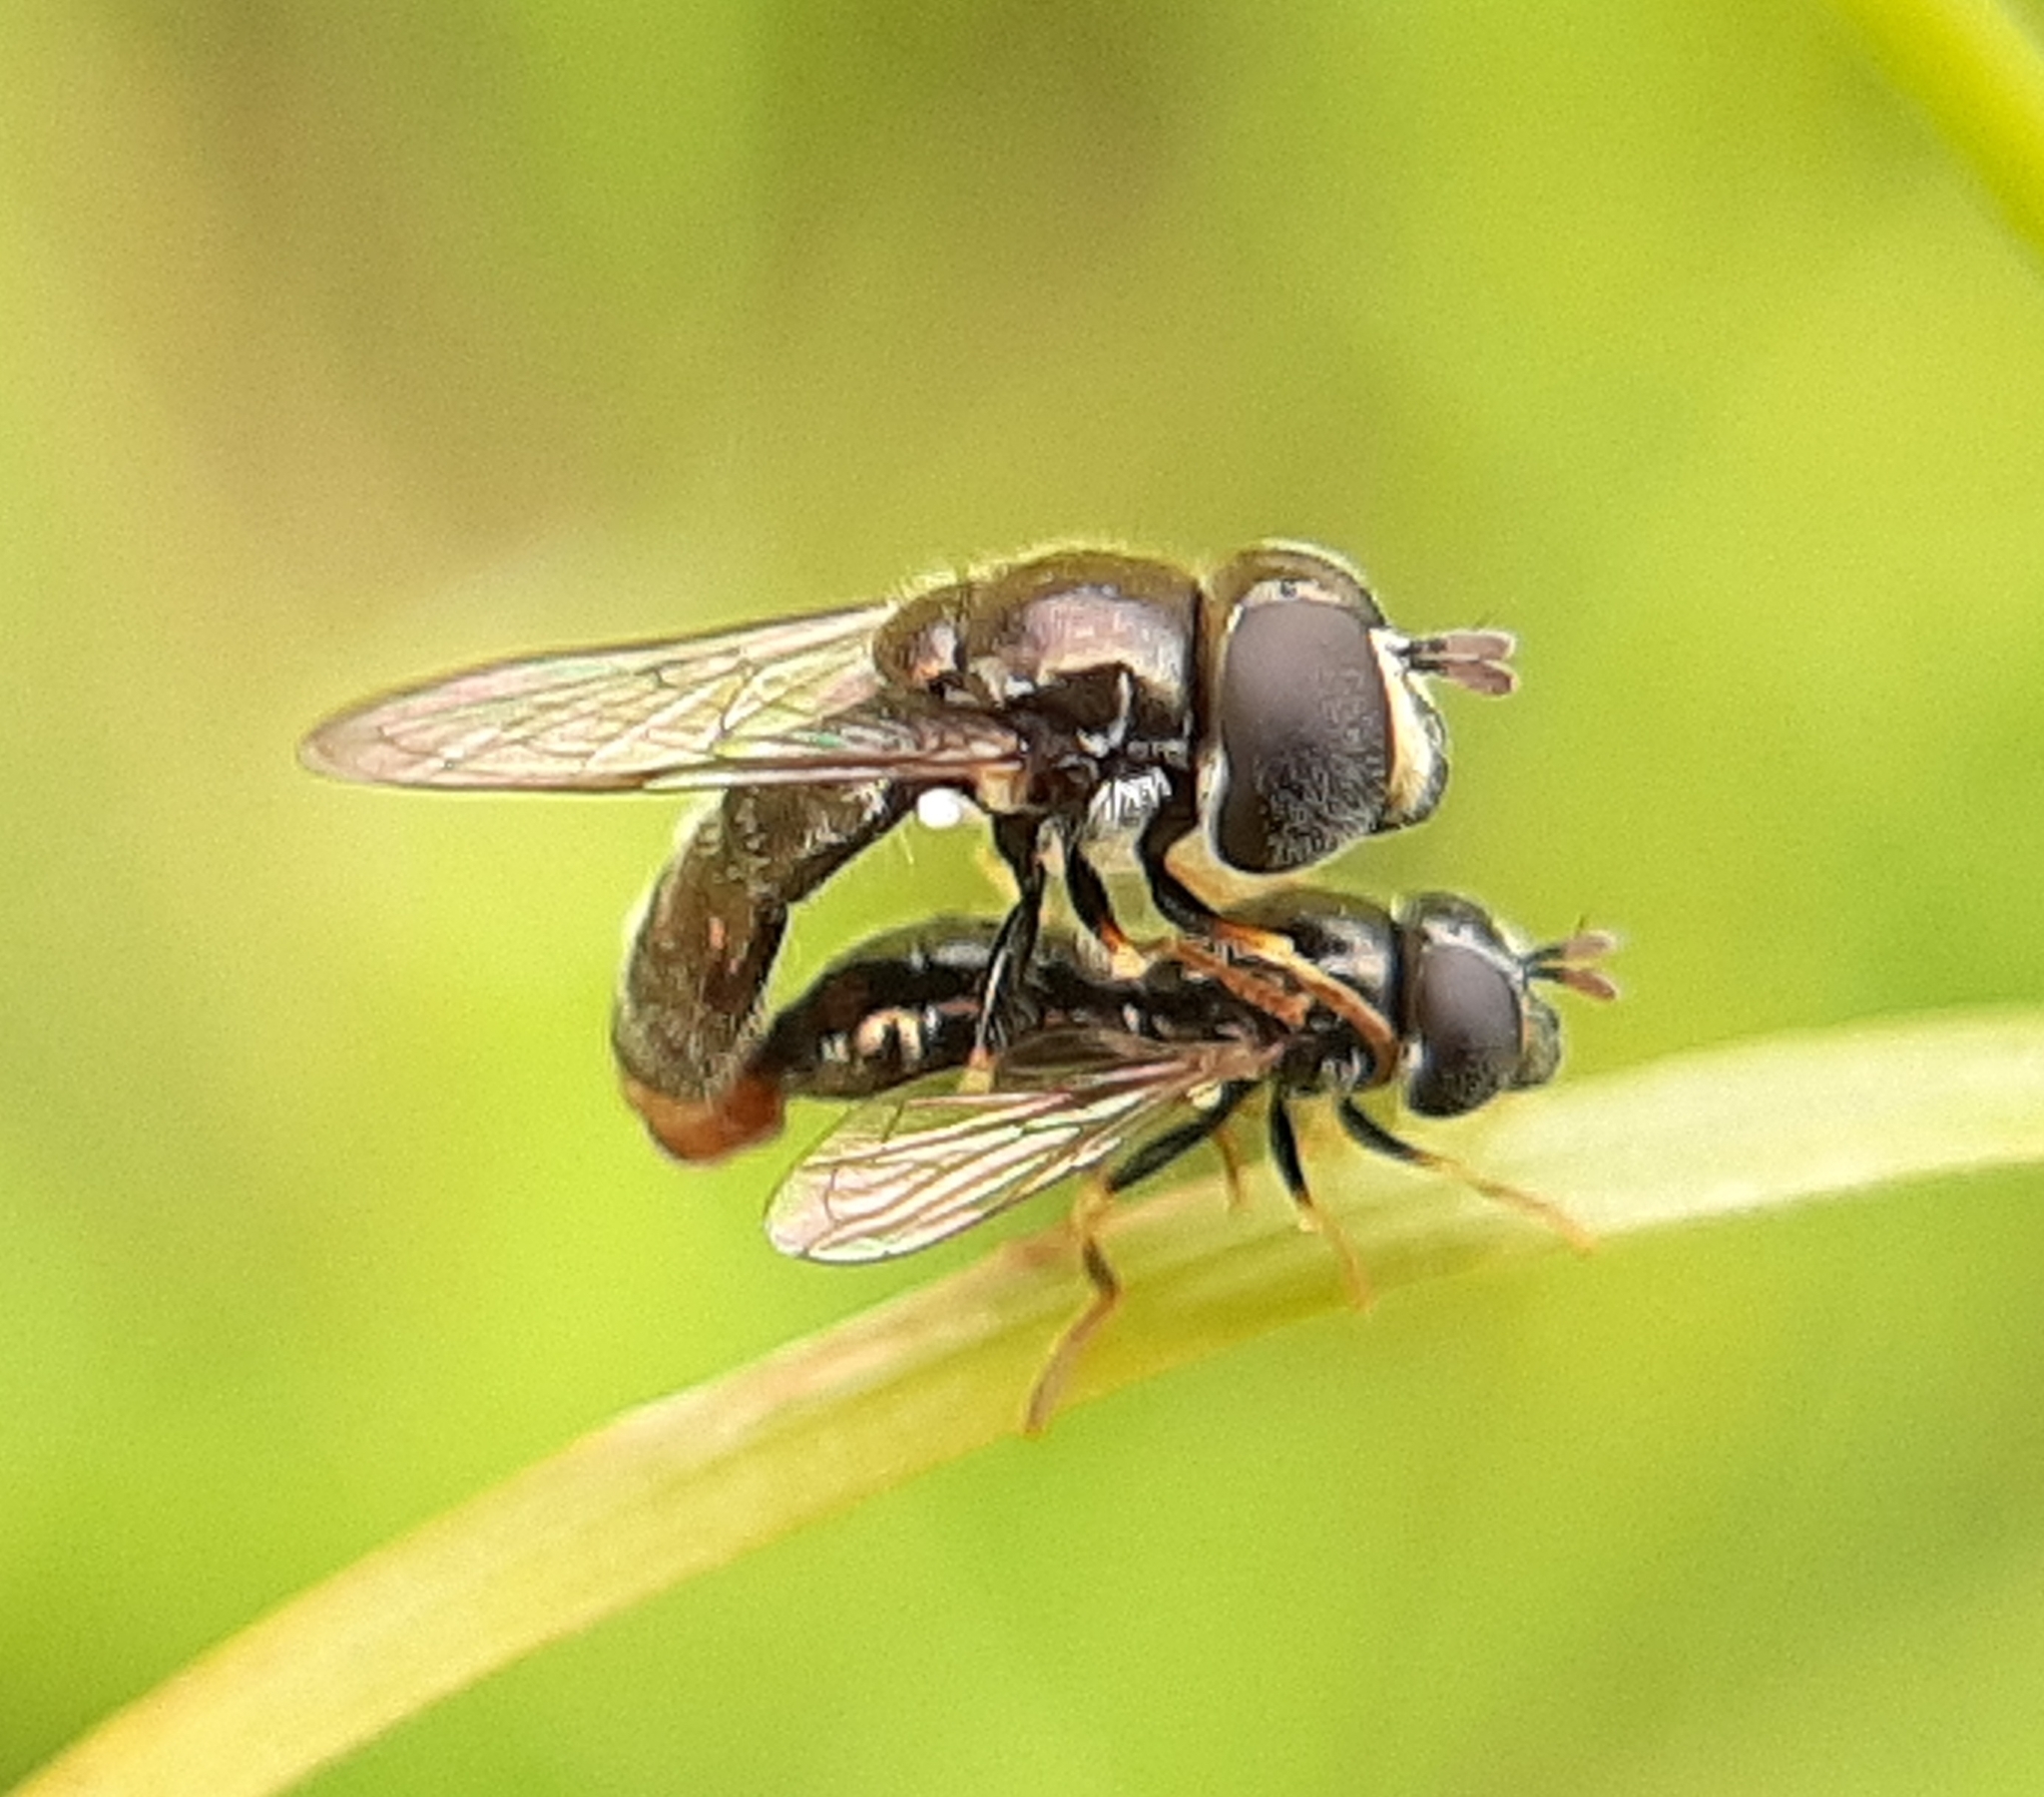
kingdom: Animalia
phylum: Arthropoda
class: Insecta
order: Diptera
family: Syrphidae
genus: Paragus
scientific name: Paragus haemorrhous
